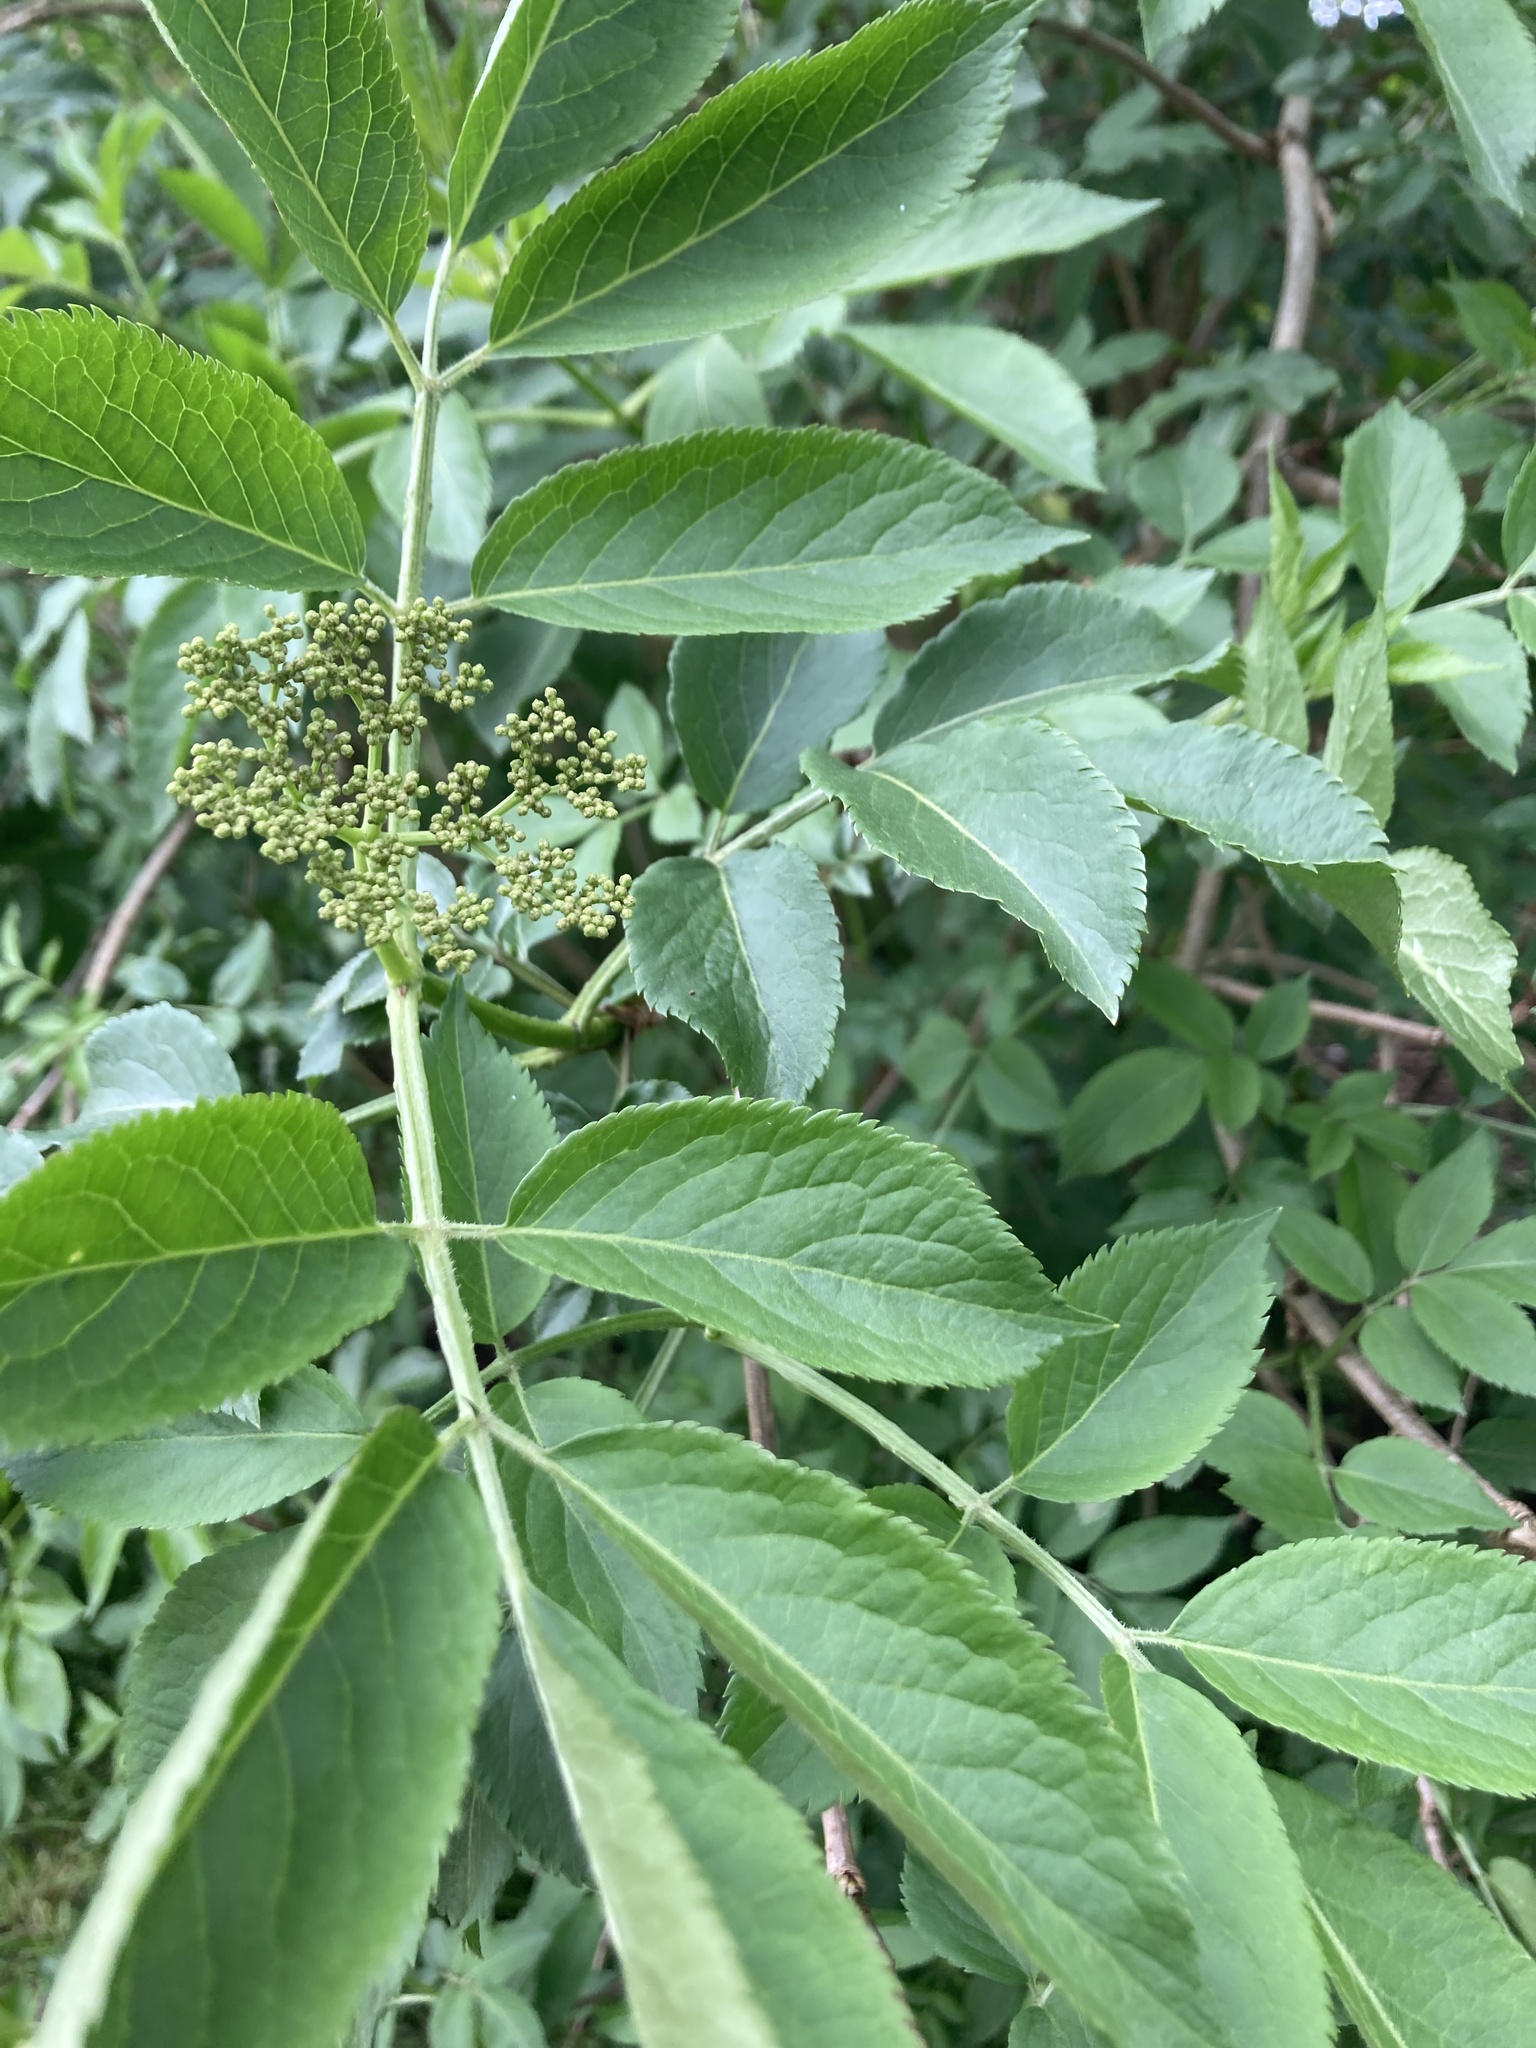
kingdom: Plantae
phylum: Tracheophyta
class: Magnoliopsida
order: Dipsacales
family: Viburnaceae
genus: Sambucus
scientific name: Sambucus nigra
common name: Elder
